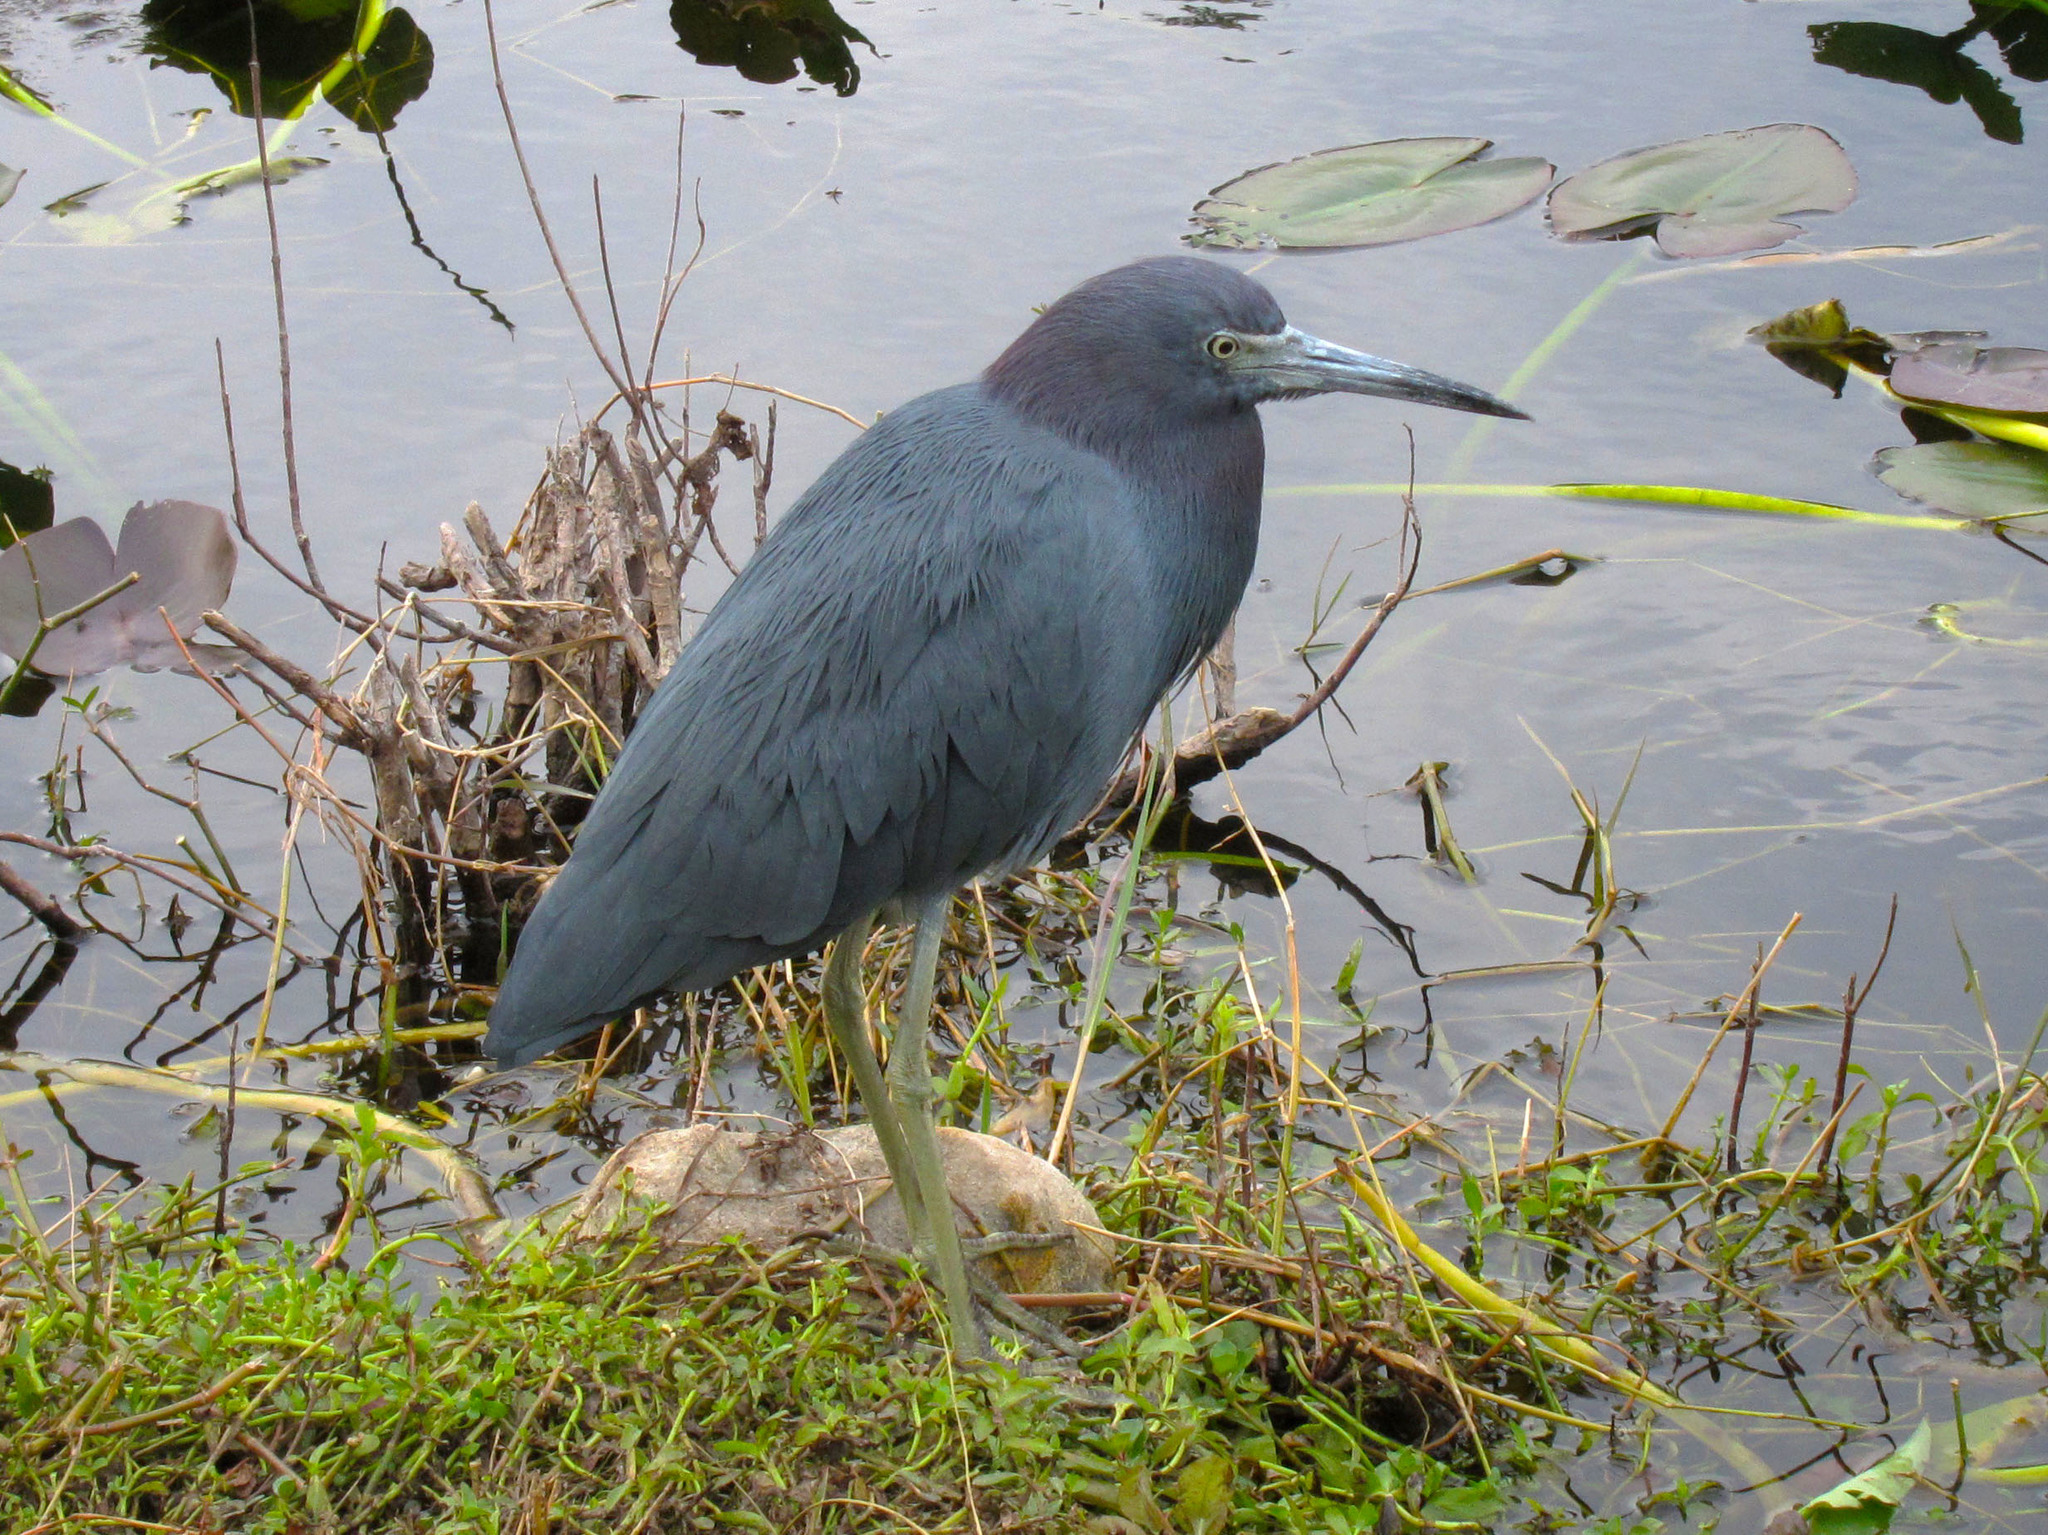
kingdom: Animalia
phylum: Chordata
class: Aves
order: Pelecaniformes
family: Ardeidae
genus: Egretta
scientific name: Egretta caerulea
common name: Little blue heron
